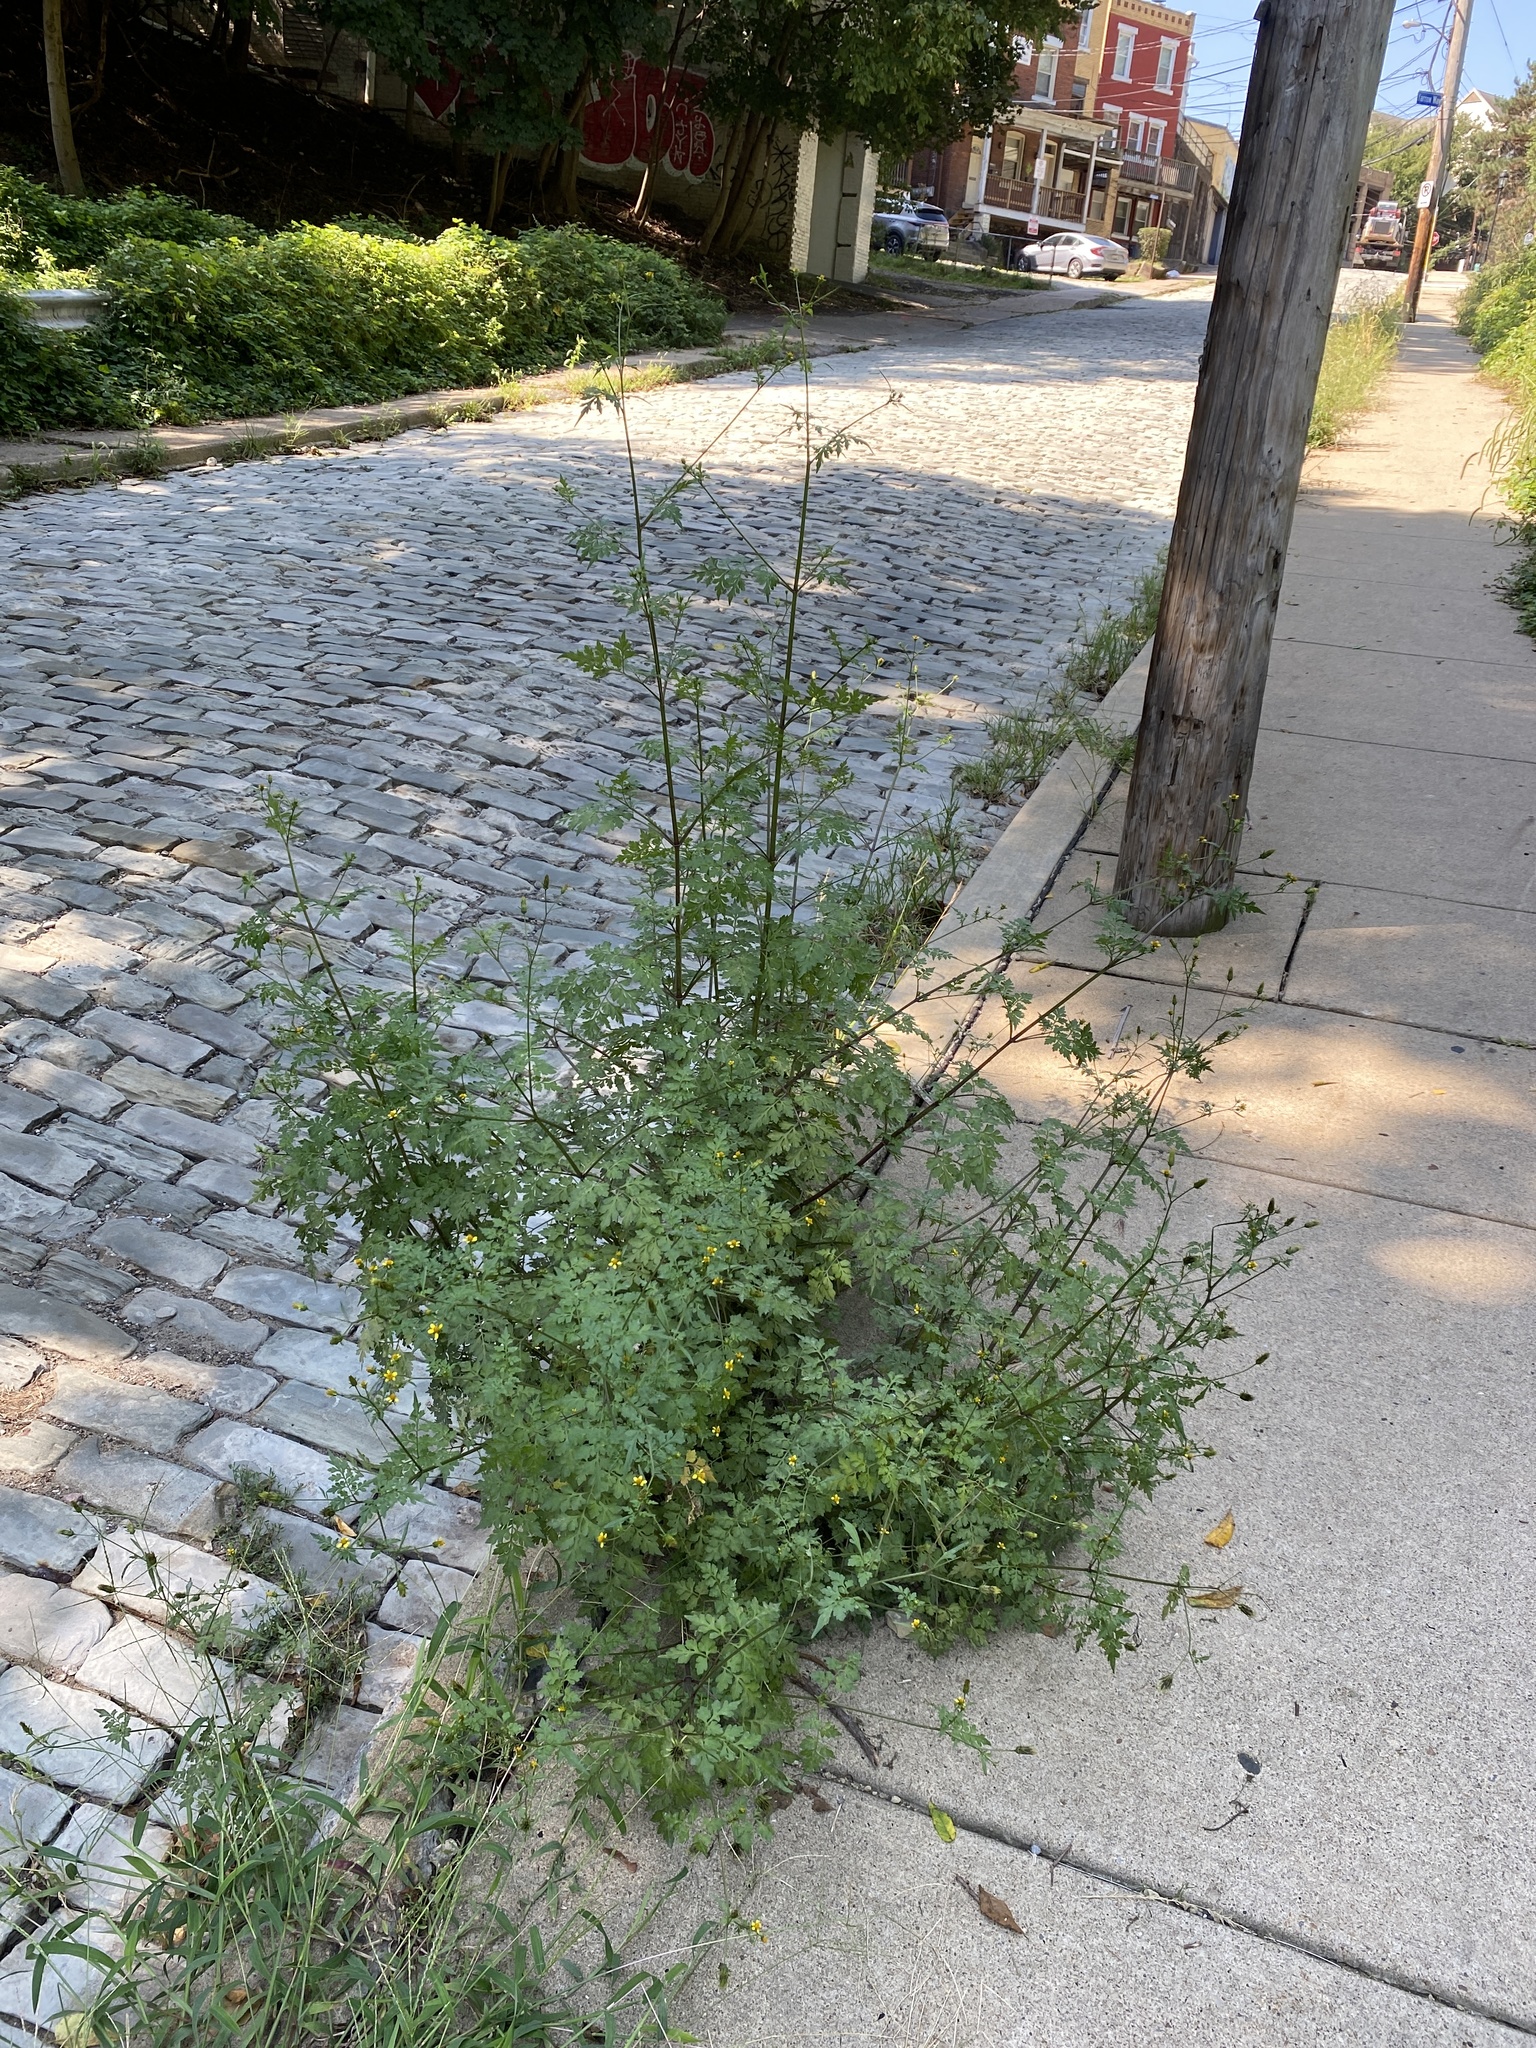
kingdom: Plantae
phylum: Tracheophyta
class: Magnoliopsida
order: Asterales
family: Asteraceae
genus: Bidens
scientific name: Bidens bipinnata
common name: Spanish-needles
